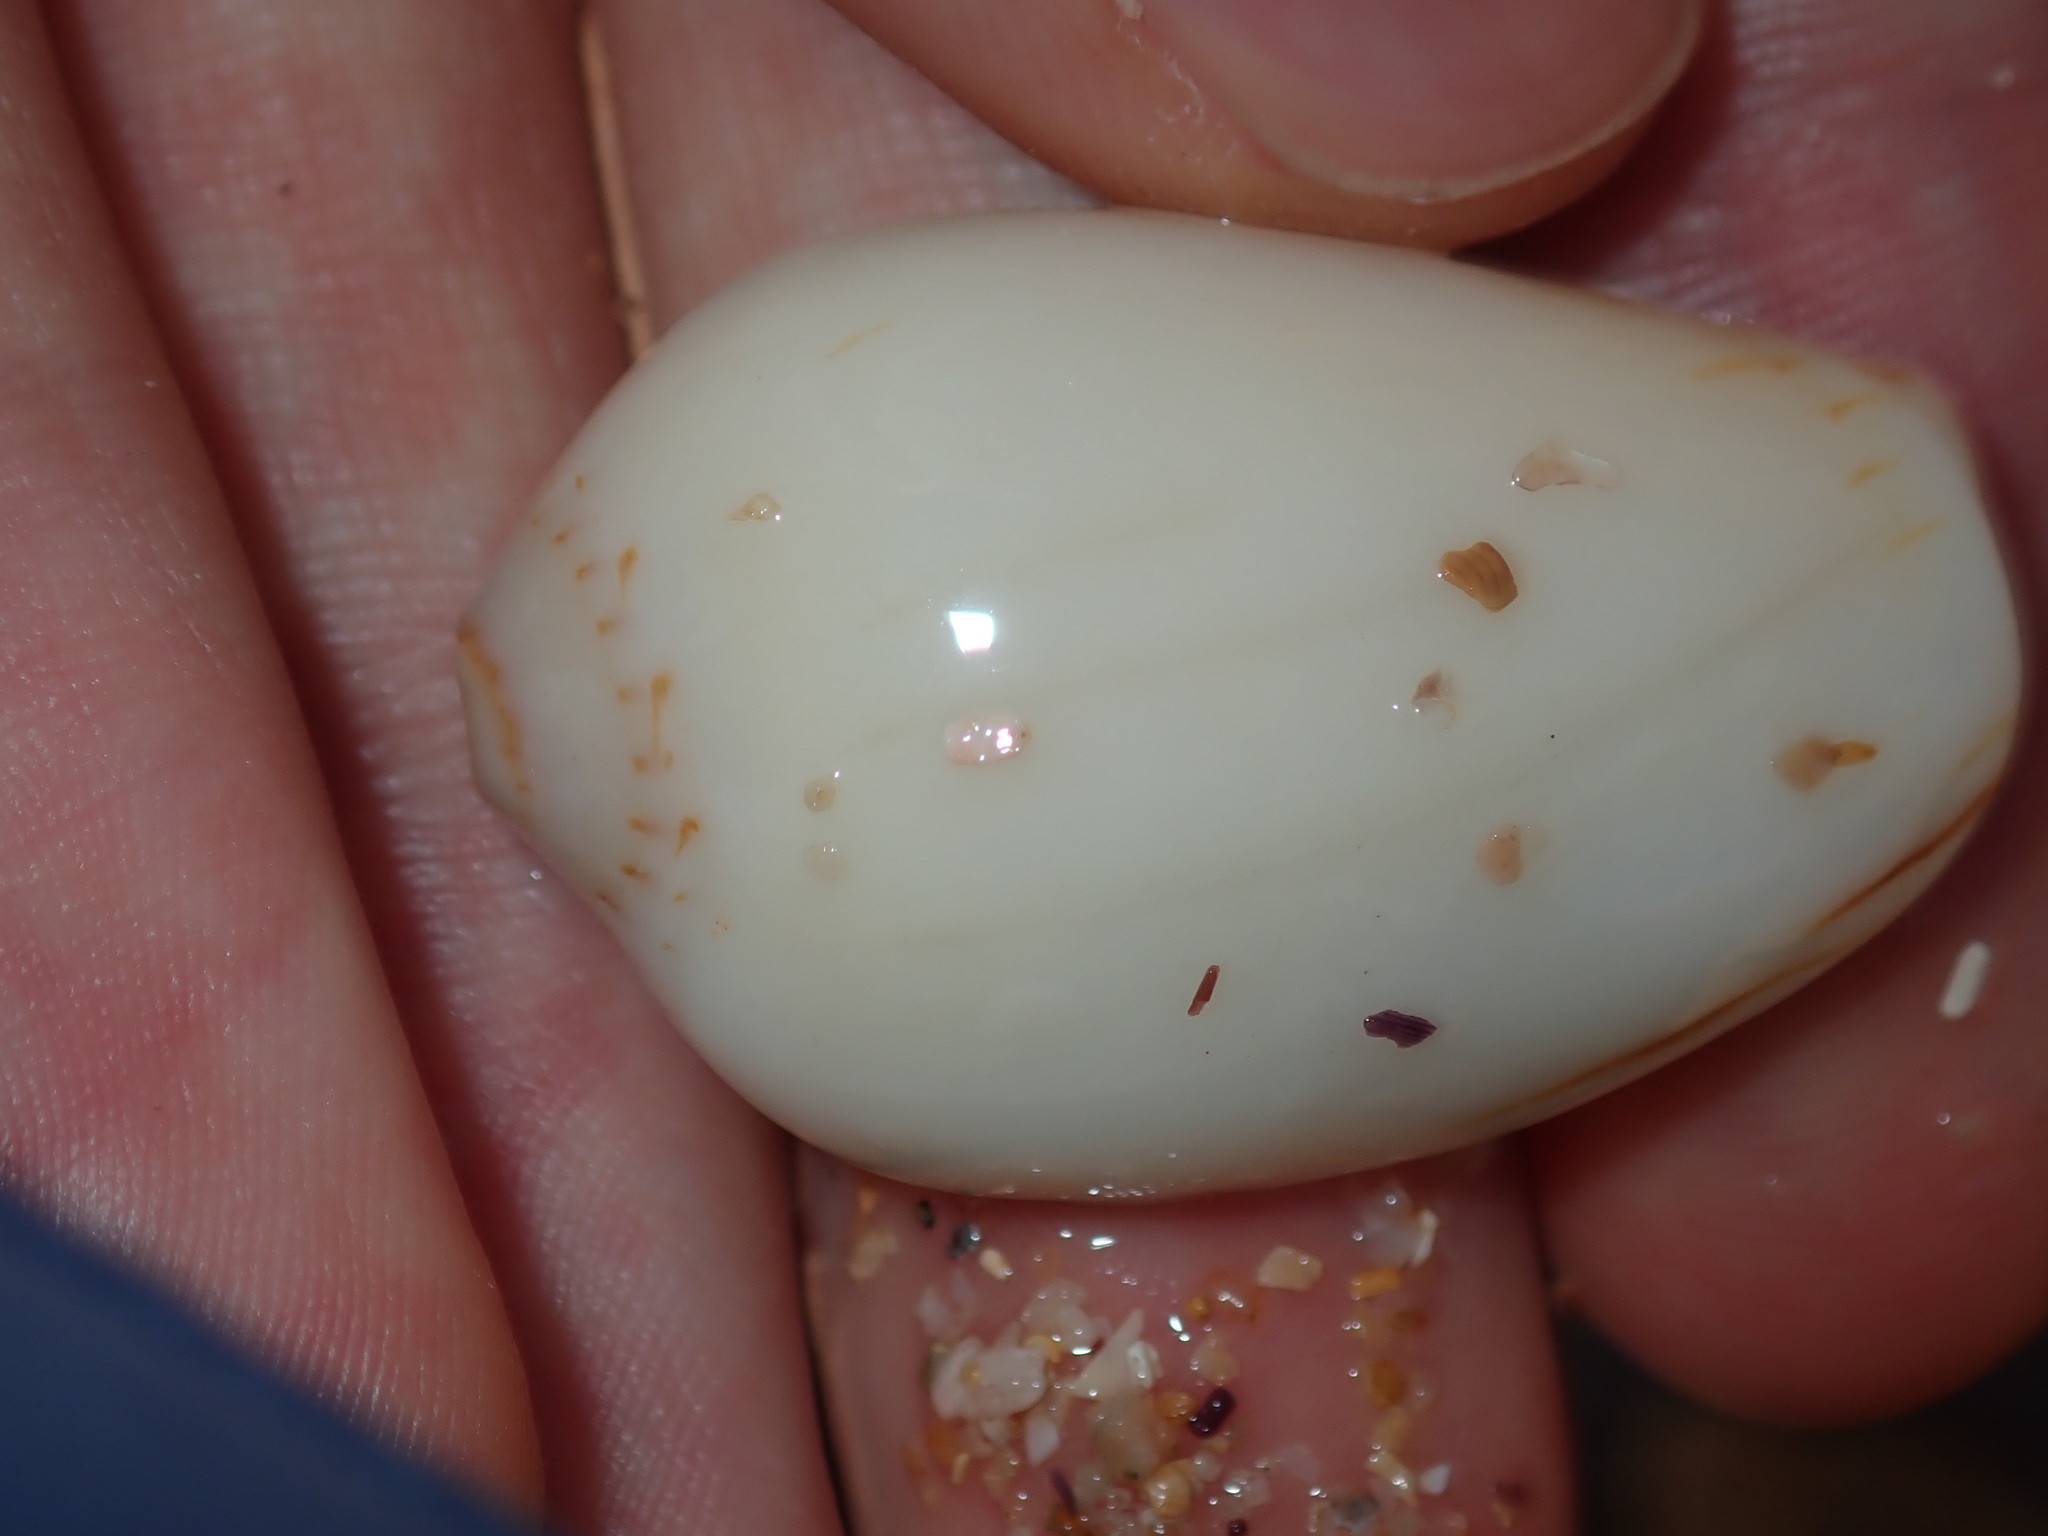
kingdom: Animalia
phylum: Mollusca
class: Gastropoda
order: Neogastropoda
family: Volutidae
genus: Amoria
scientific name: Amoria zebra
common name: Zebra volute
